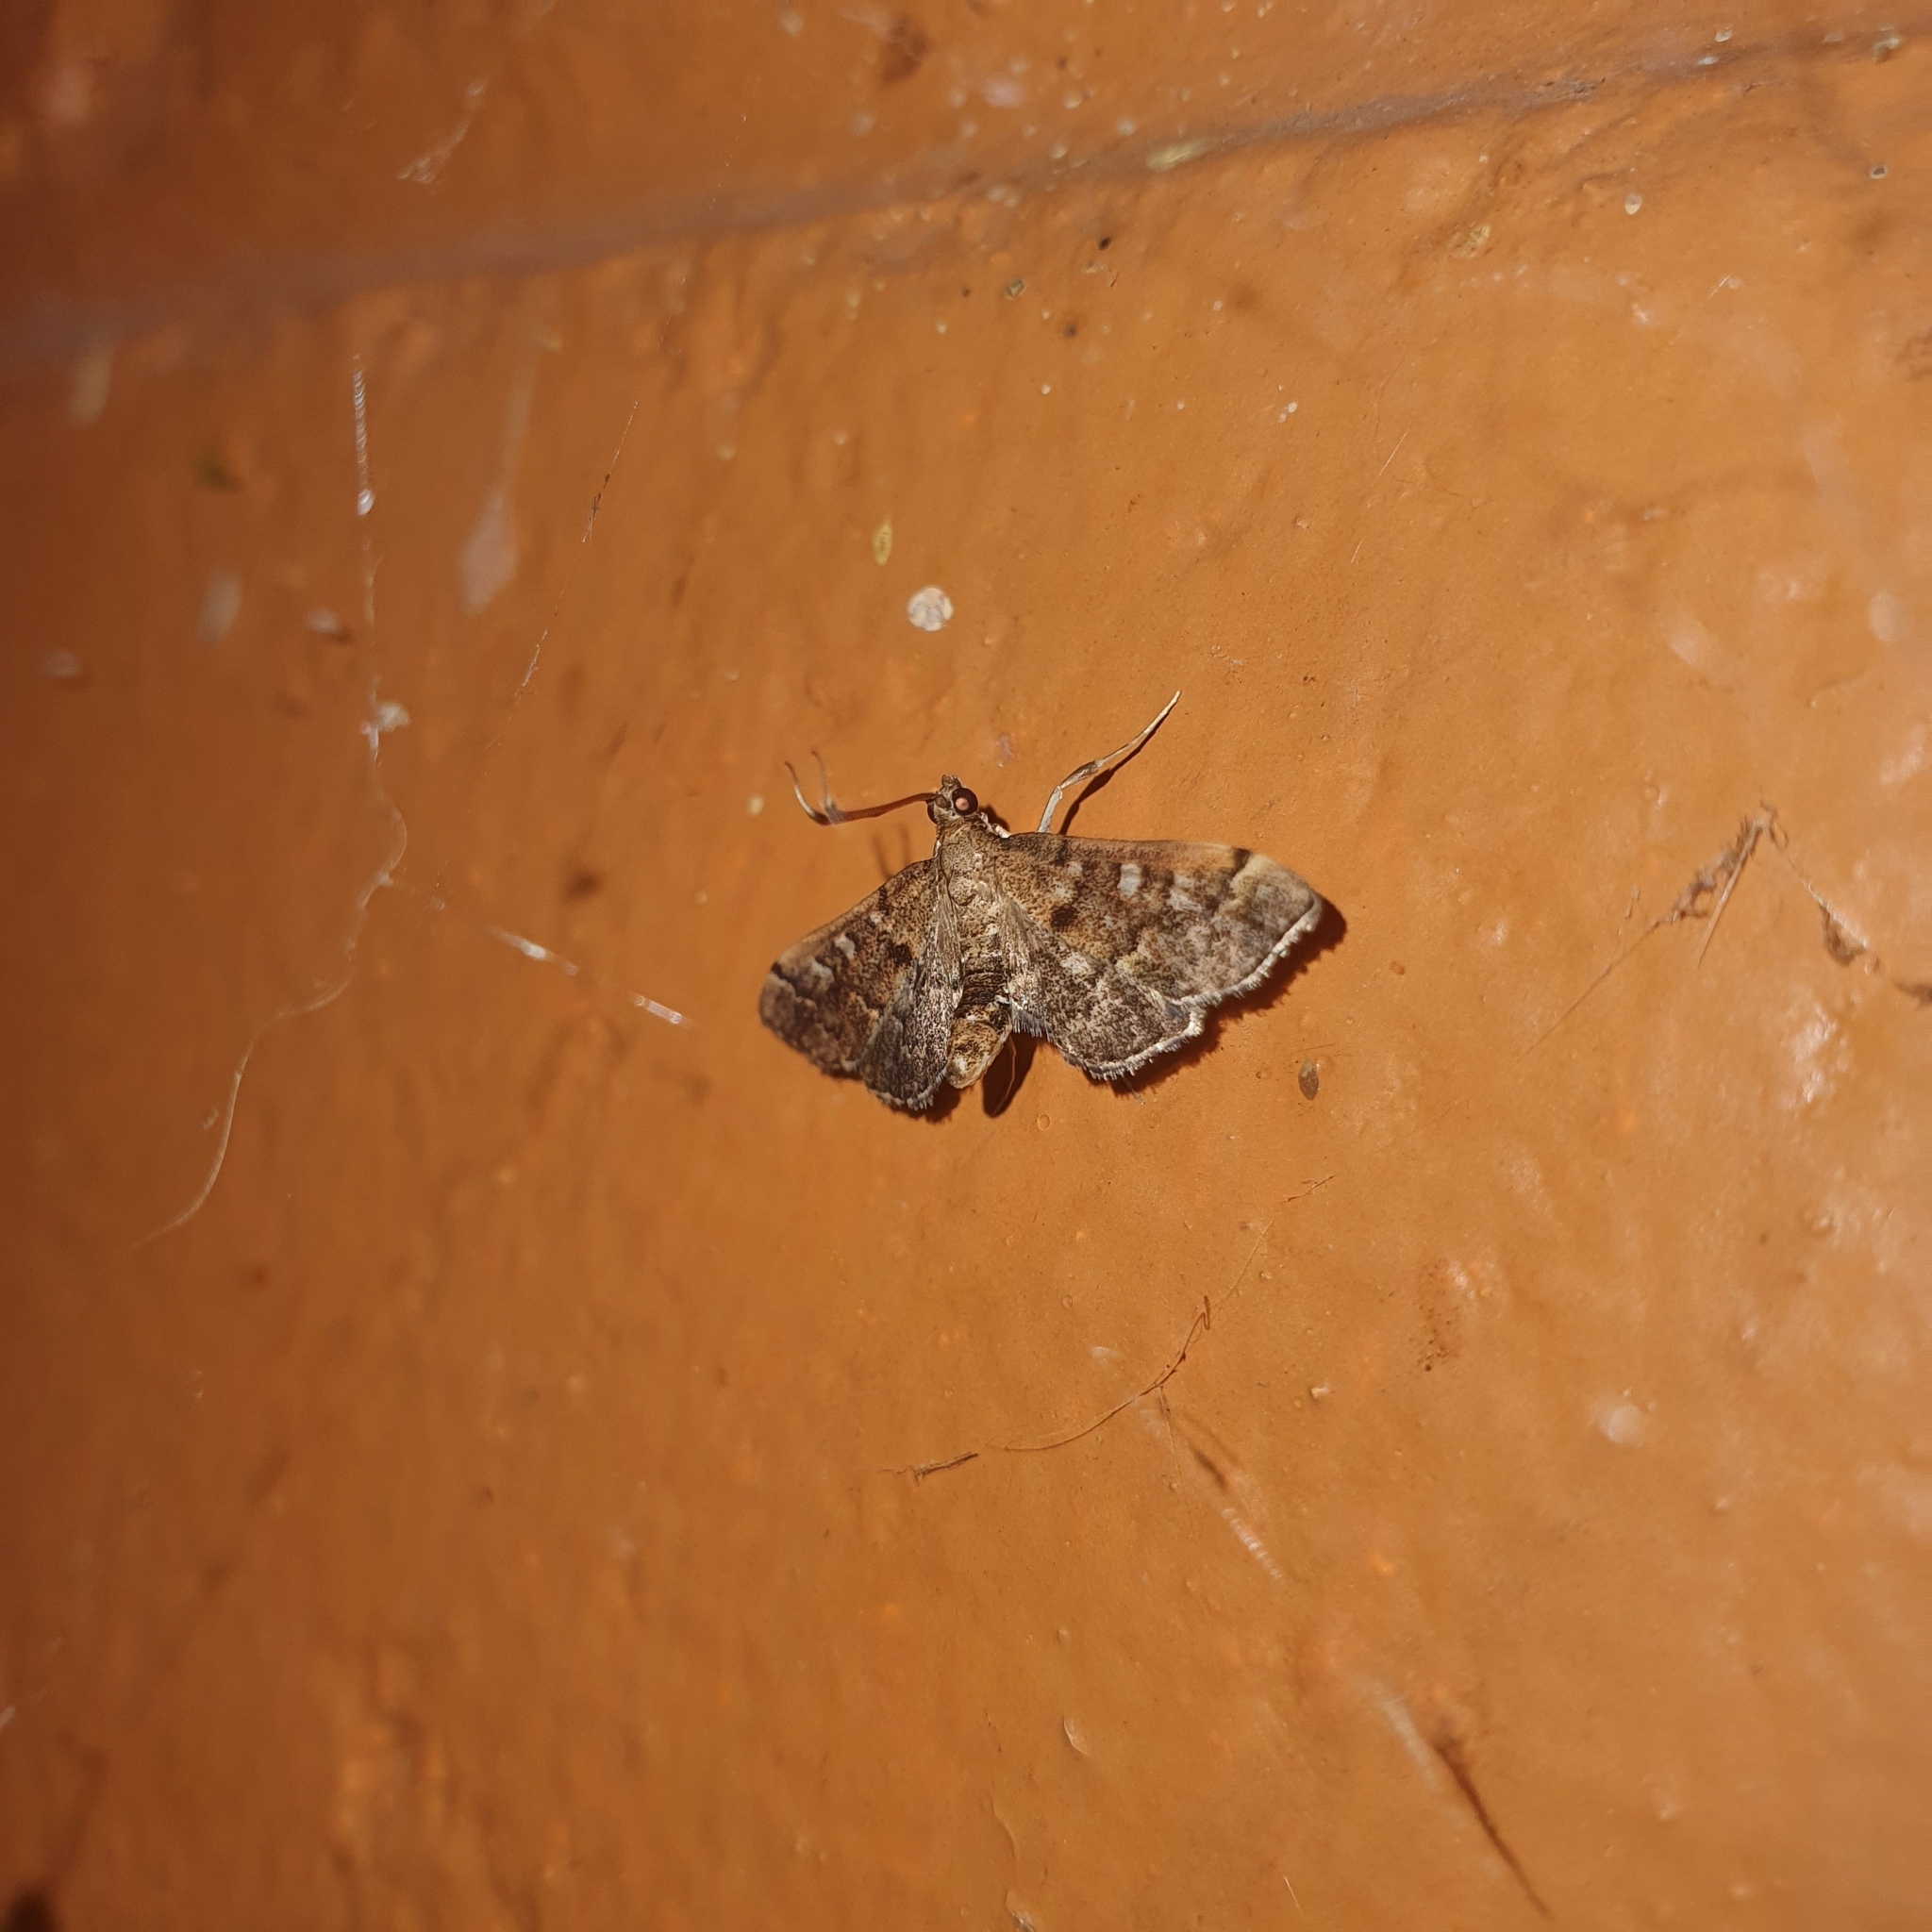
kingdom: Animalia
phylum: Arthropoda
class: Insecta
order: Lepidoptera
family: Crambidae
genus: Nacoleia
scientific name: Nacoleia rhoeoalis
